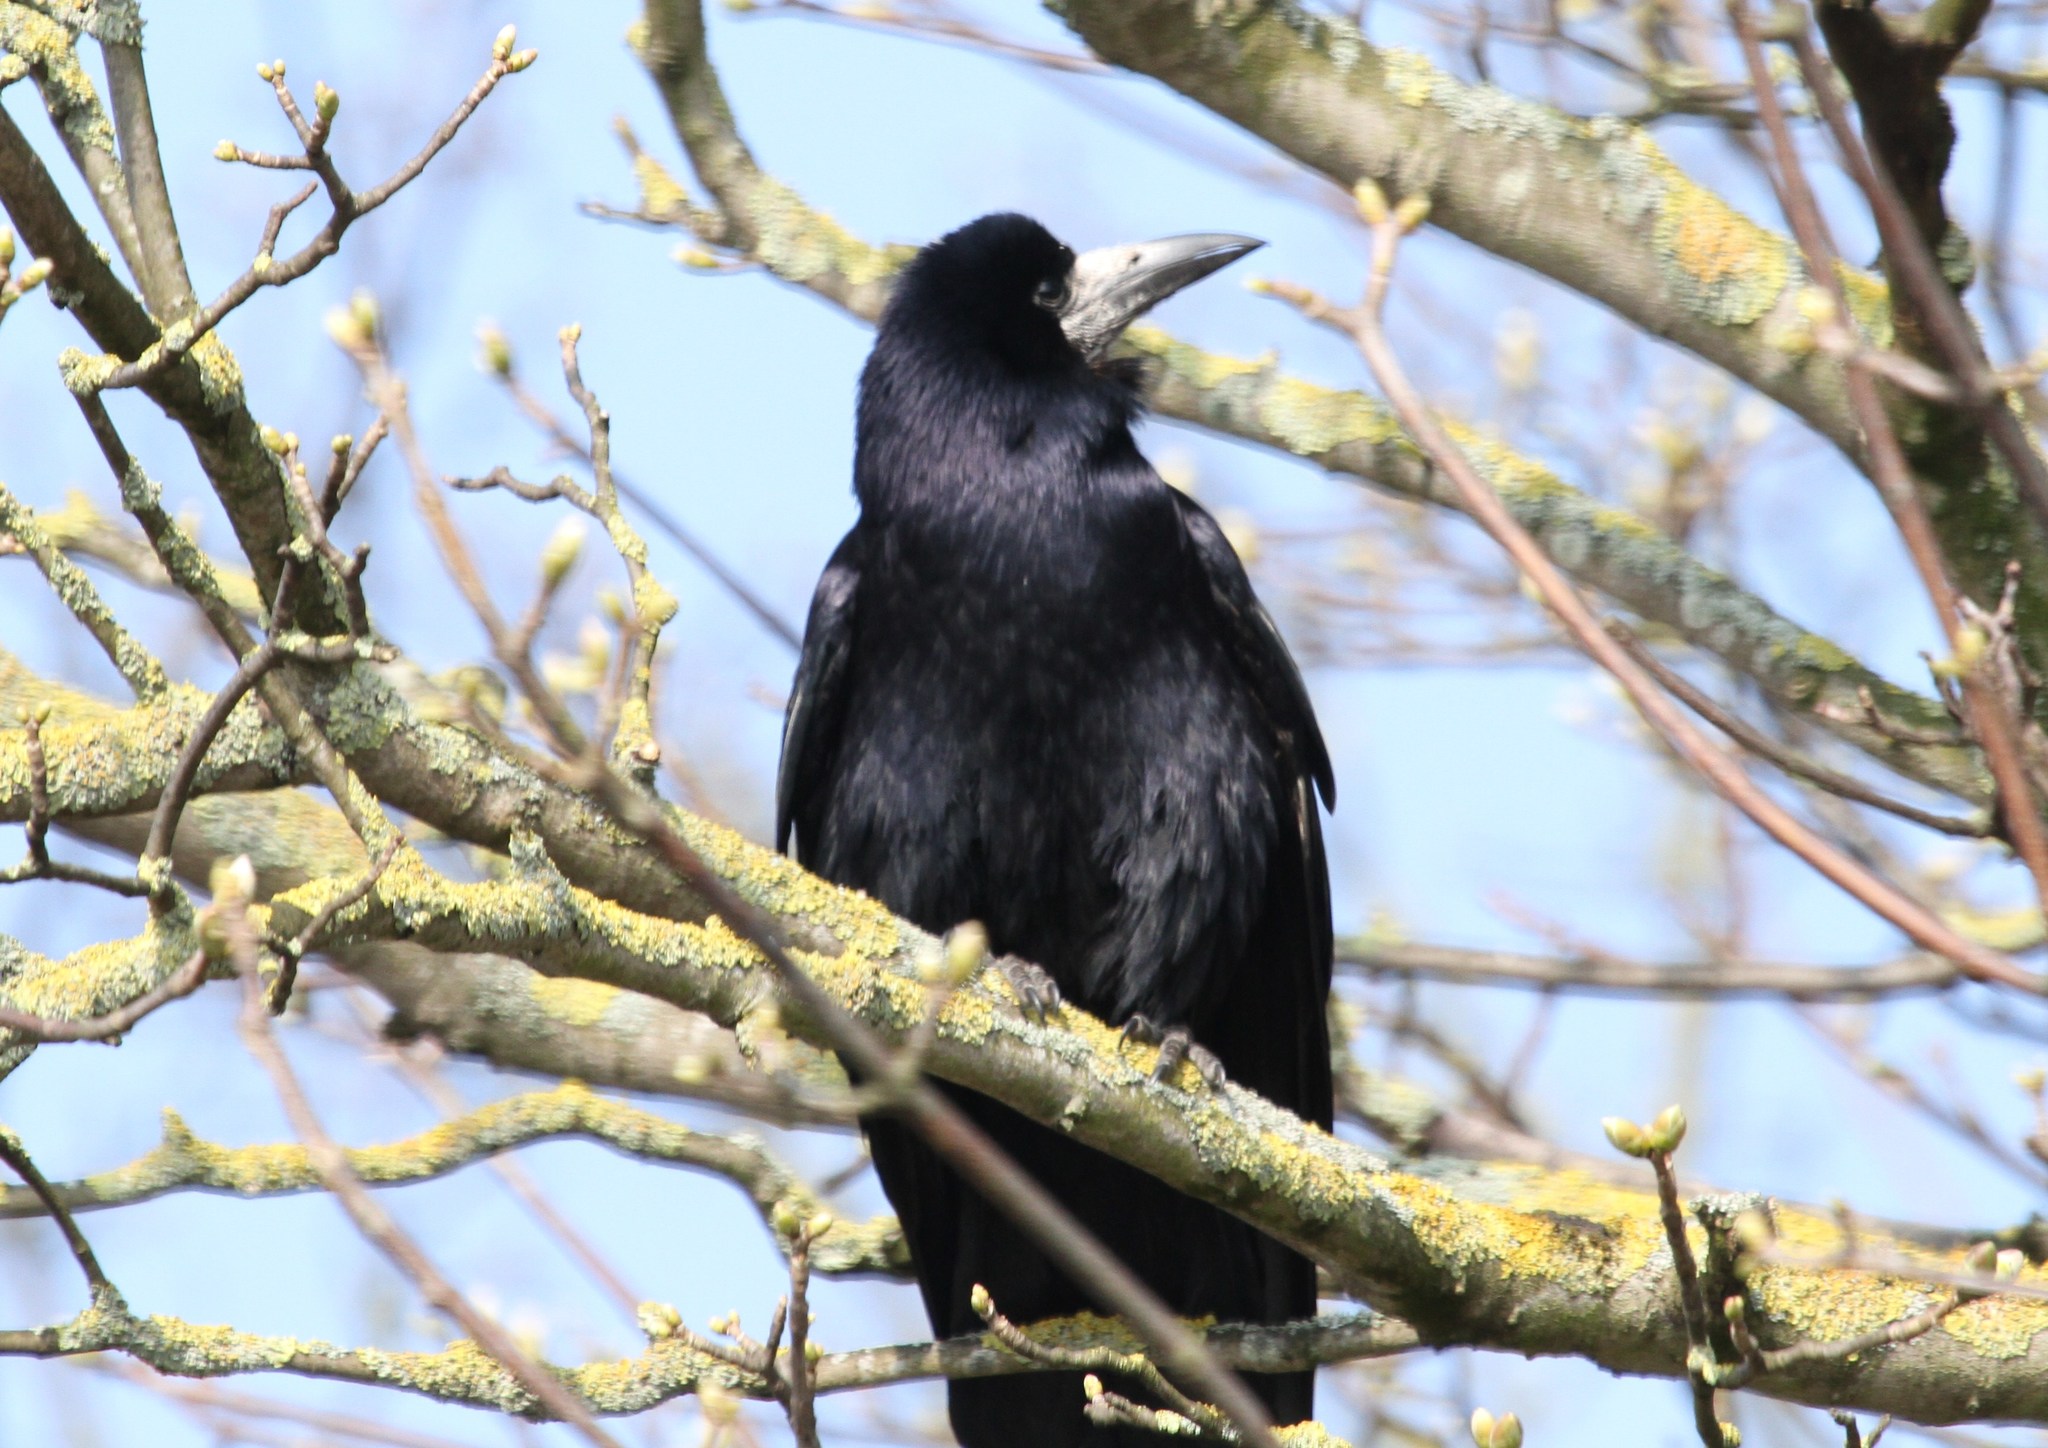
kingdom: Animalia
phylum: Chordata
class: Aves
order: Passeriformes
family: Corvidae
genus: Corvus
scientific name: Corvus frugilegus
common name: Rook
